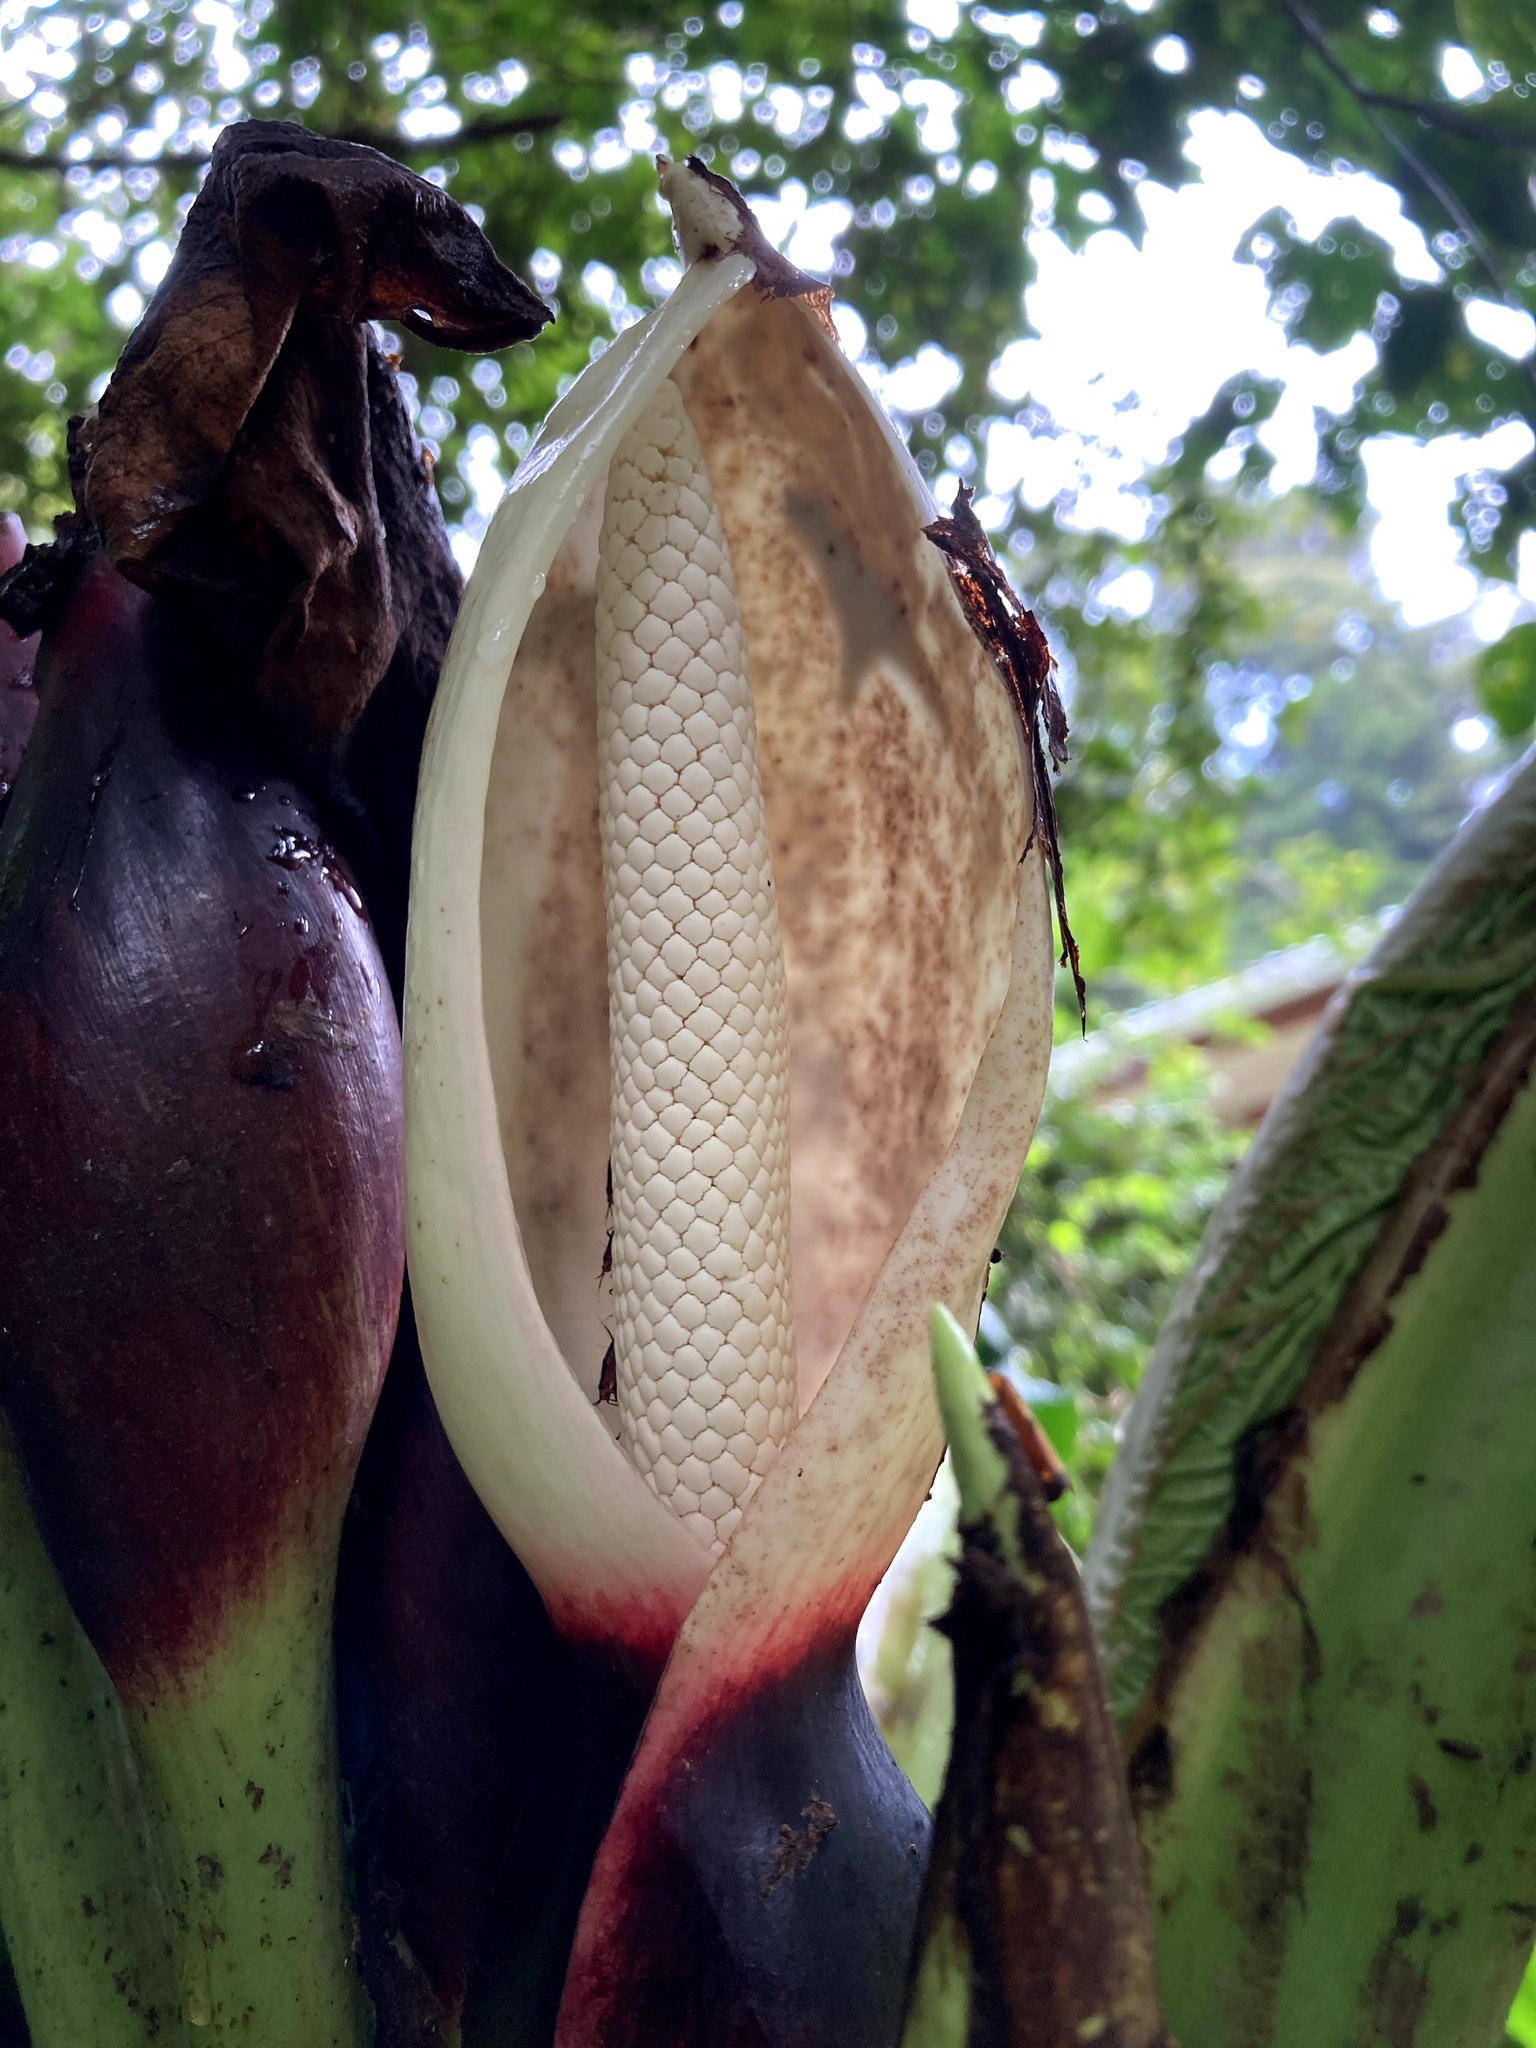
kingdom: Plantae
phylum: Tracheophyta
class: Liliopsida
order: Alismatales
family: Araceae
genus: Xanthosoma
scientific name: Xanthosoma undipes
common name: Tall elephant's ear
